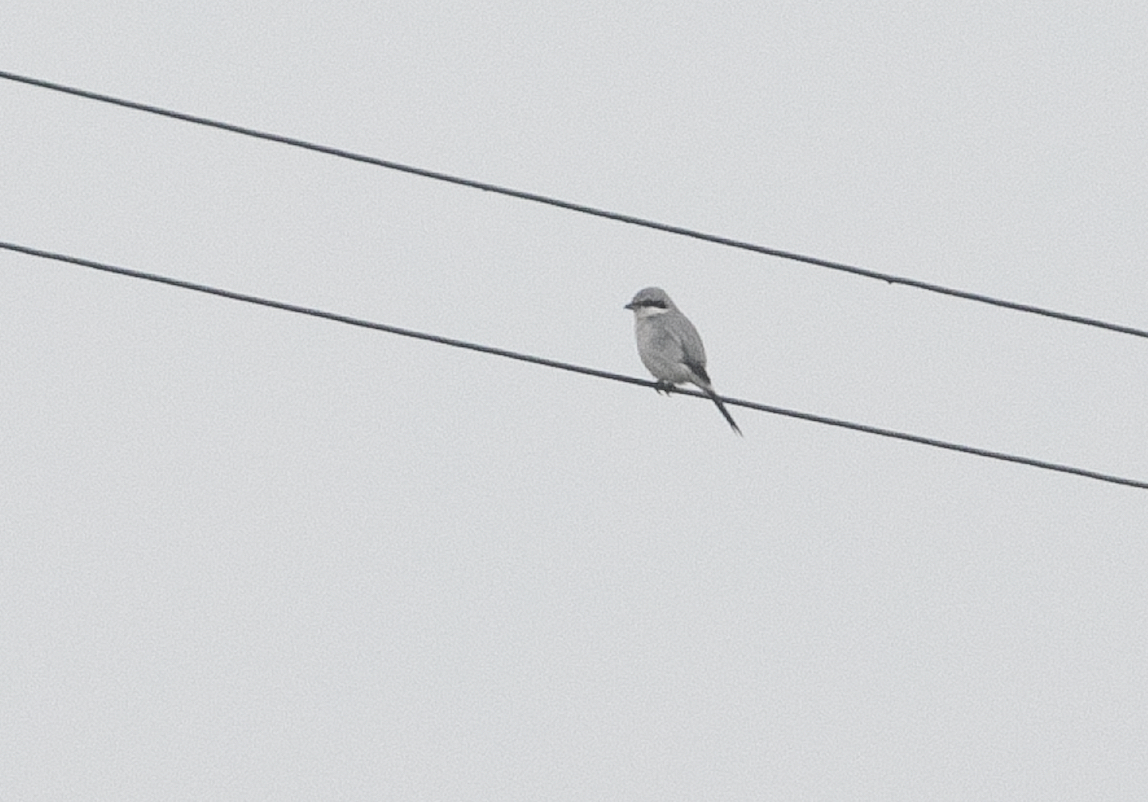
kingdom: Animalia
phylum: Chordata
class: Aves
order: Passeriformes
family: Laniidae
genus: Lanius
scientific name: Lanius excubitor
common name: Great grey shrike
